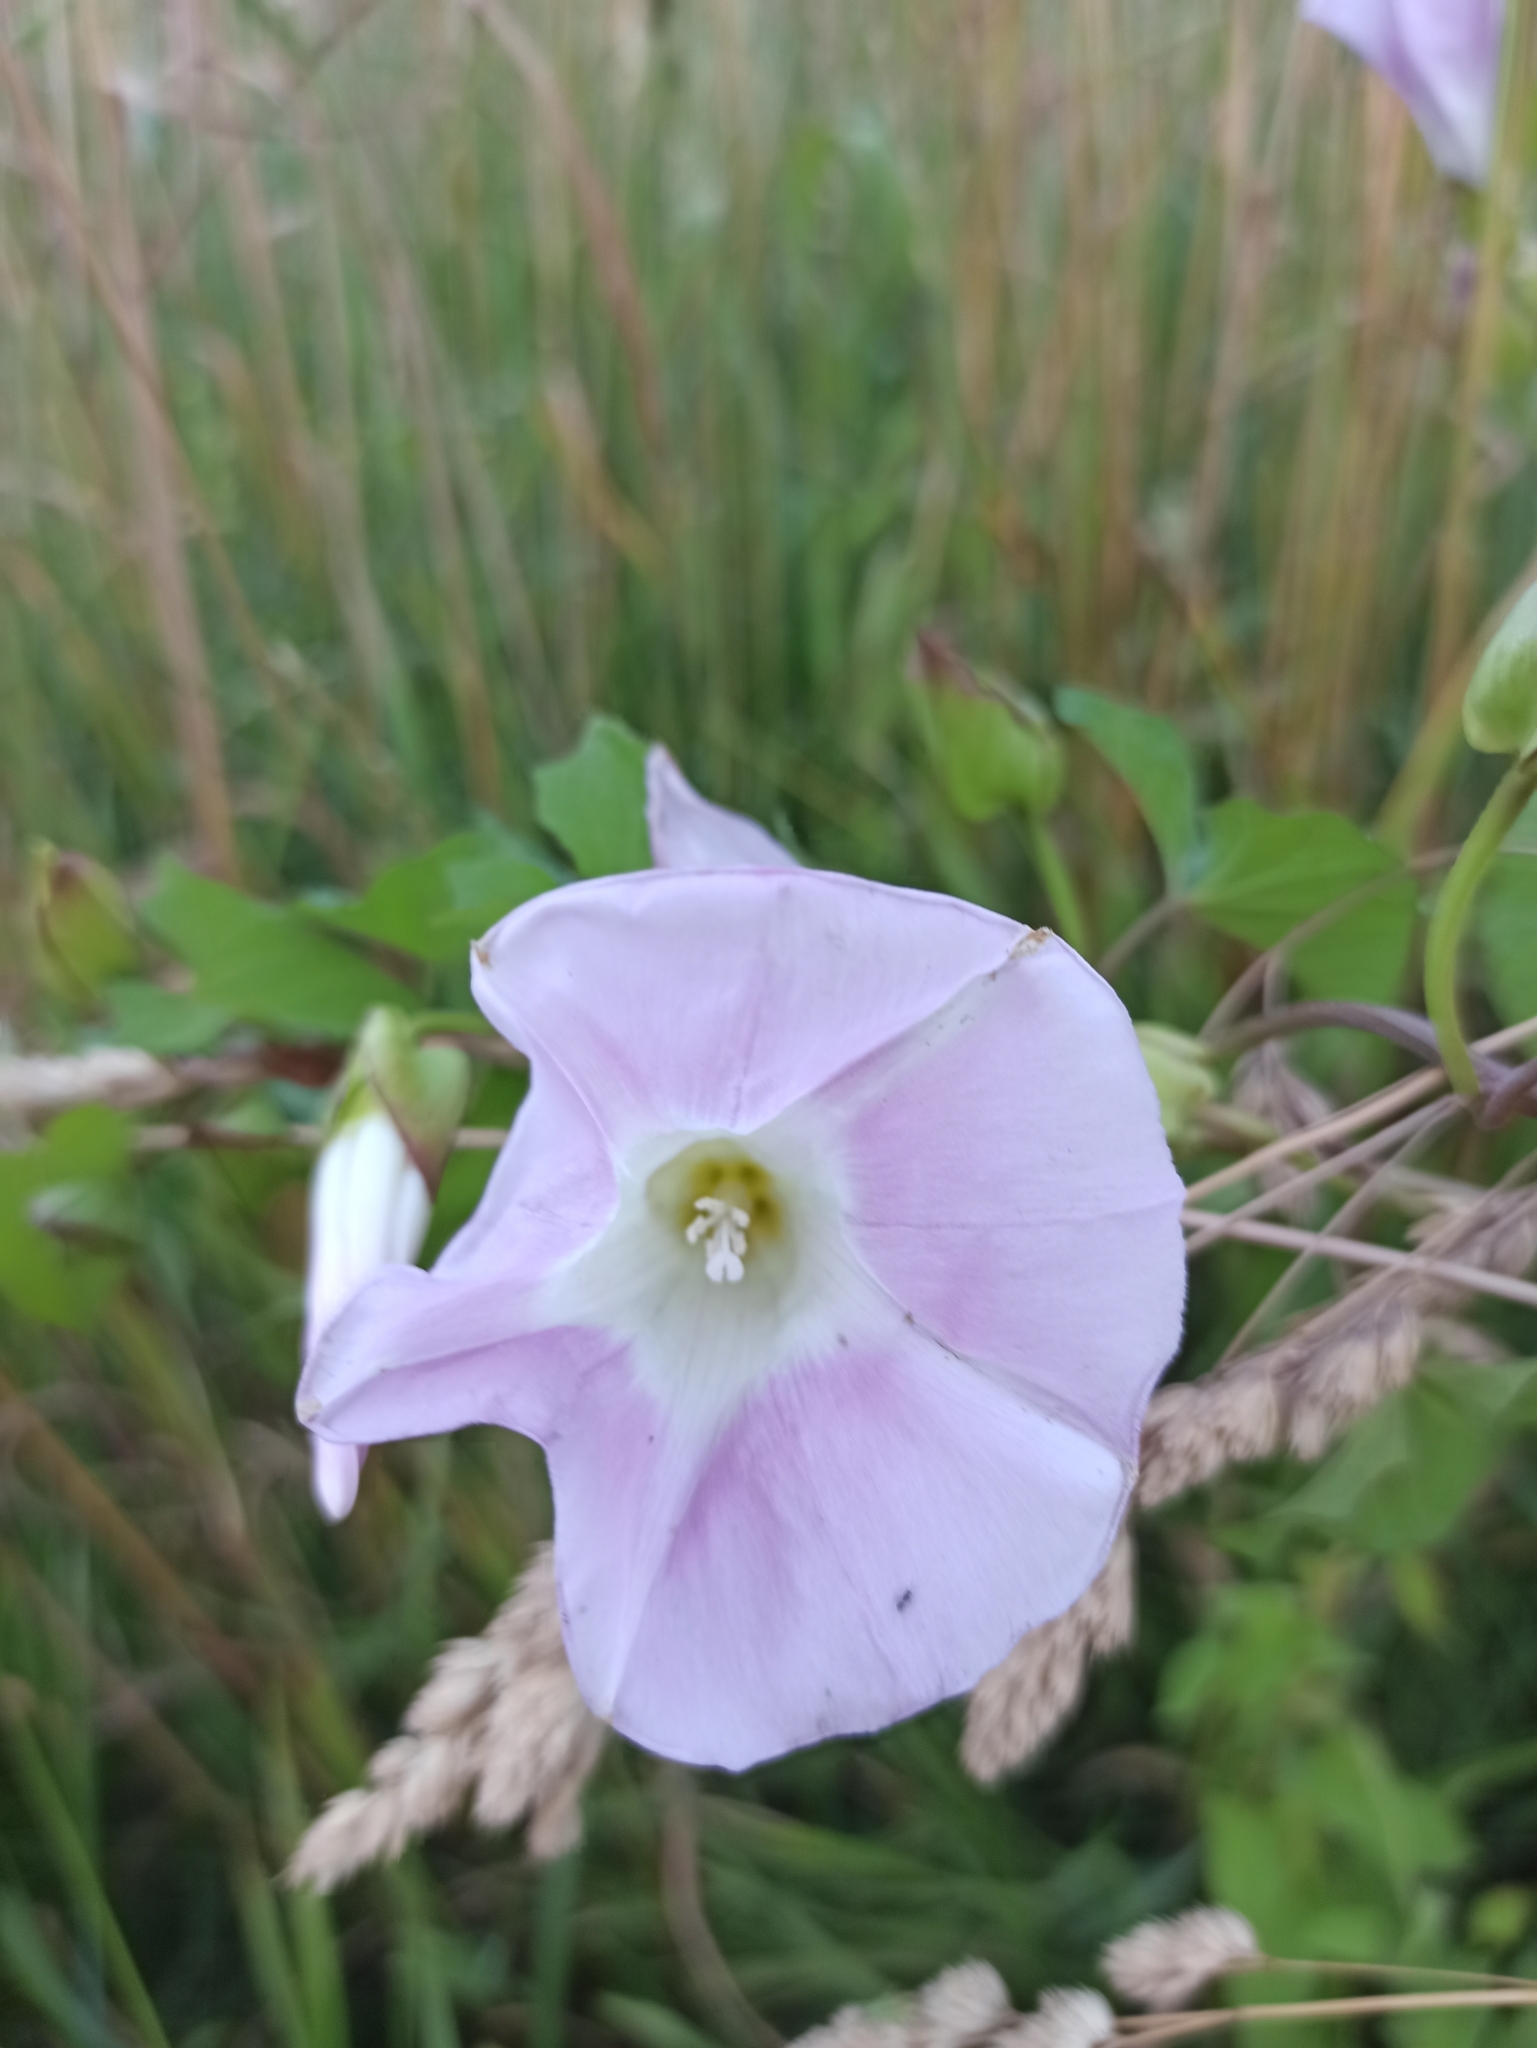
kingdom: Plantae
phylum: Tracheophyta
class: Magnoliopsida
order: Solanales
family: Convolvulaceae
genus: Calystegia
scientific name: Calystegia sepium
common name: Hedge bindweed
